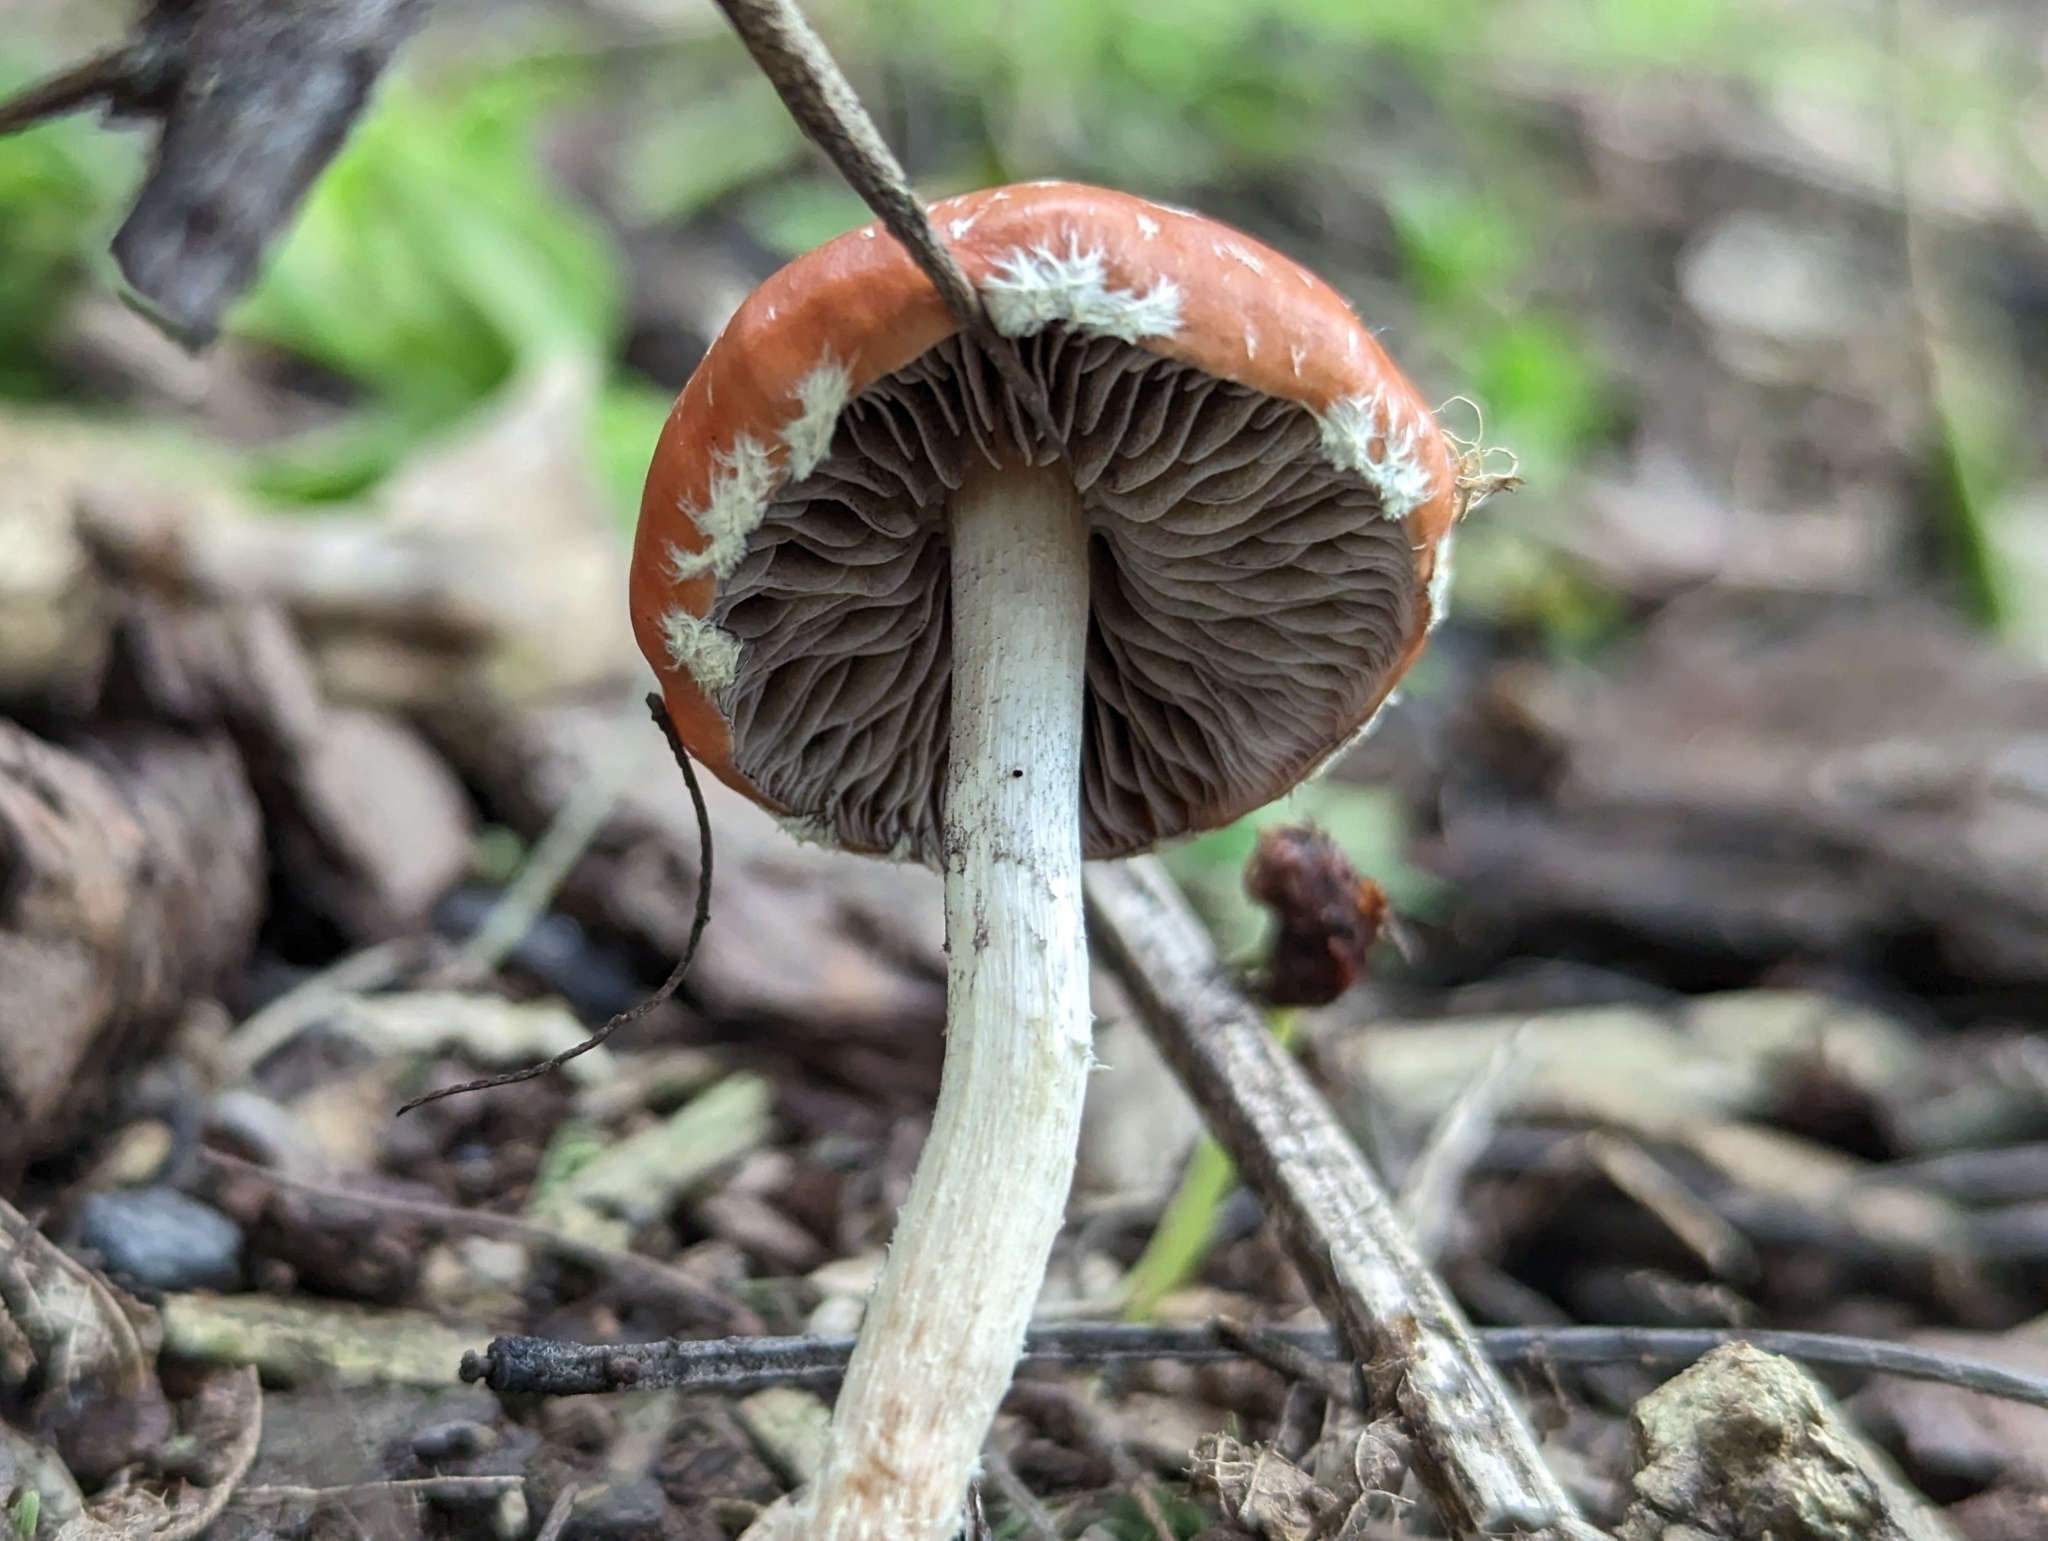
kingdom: Fungi
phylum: Basidiomycota
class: Agaricomycetes
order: Agaricales
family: Strophariaceae
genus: Leratiomyces
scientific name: Leratiomyces ceres
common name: Redlead roundhead
